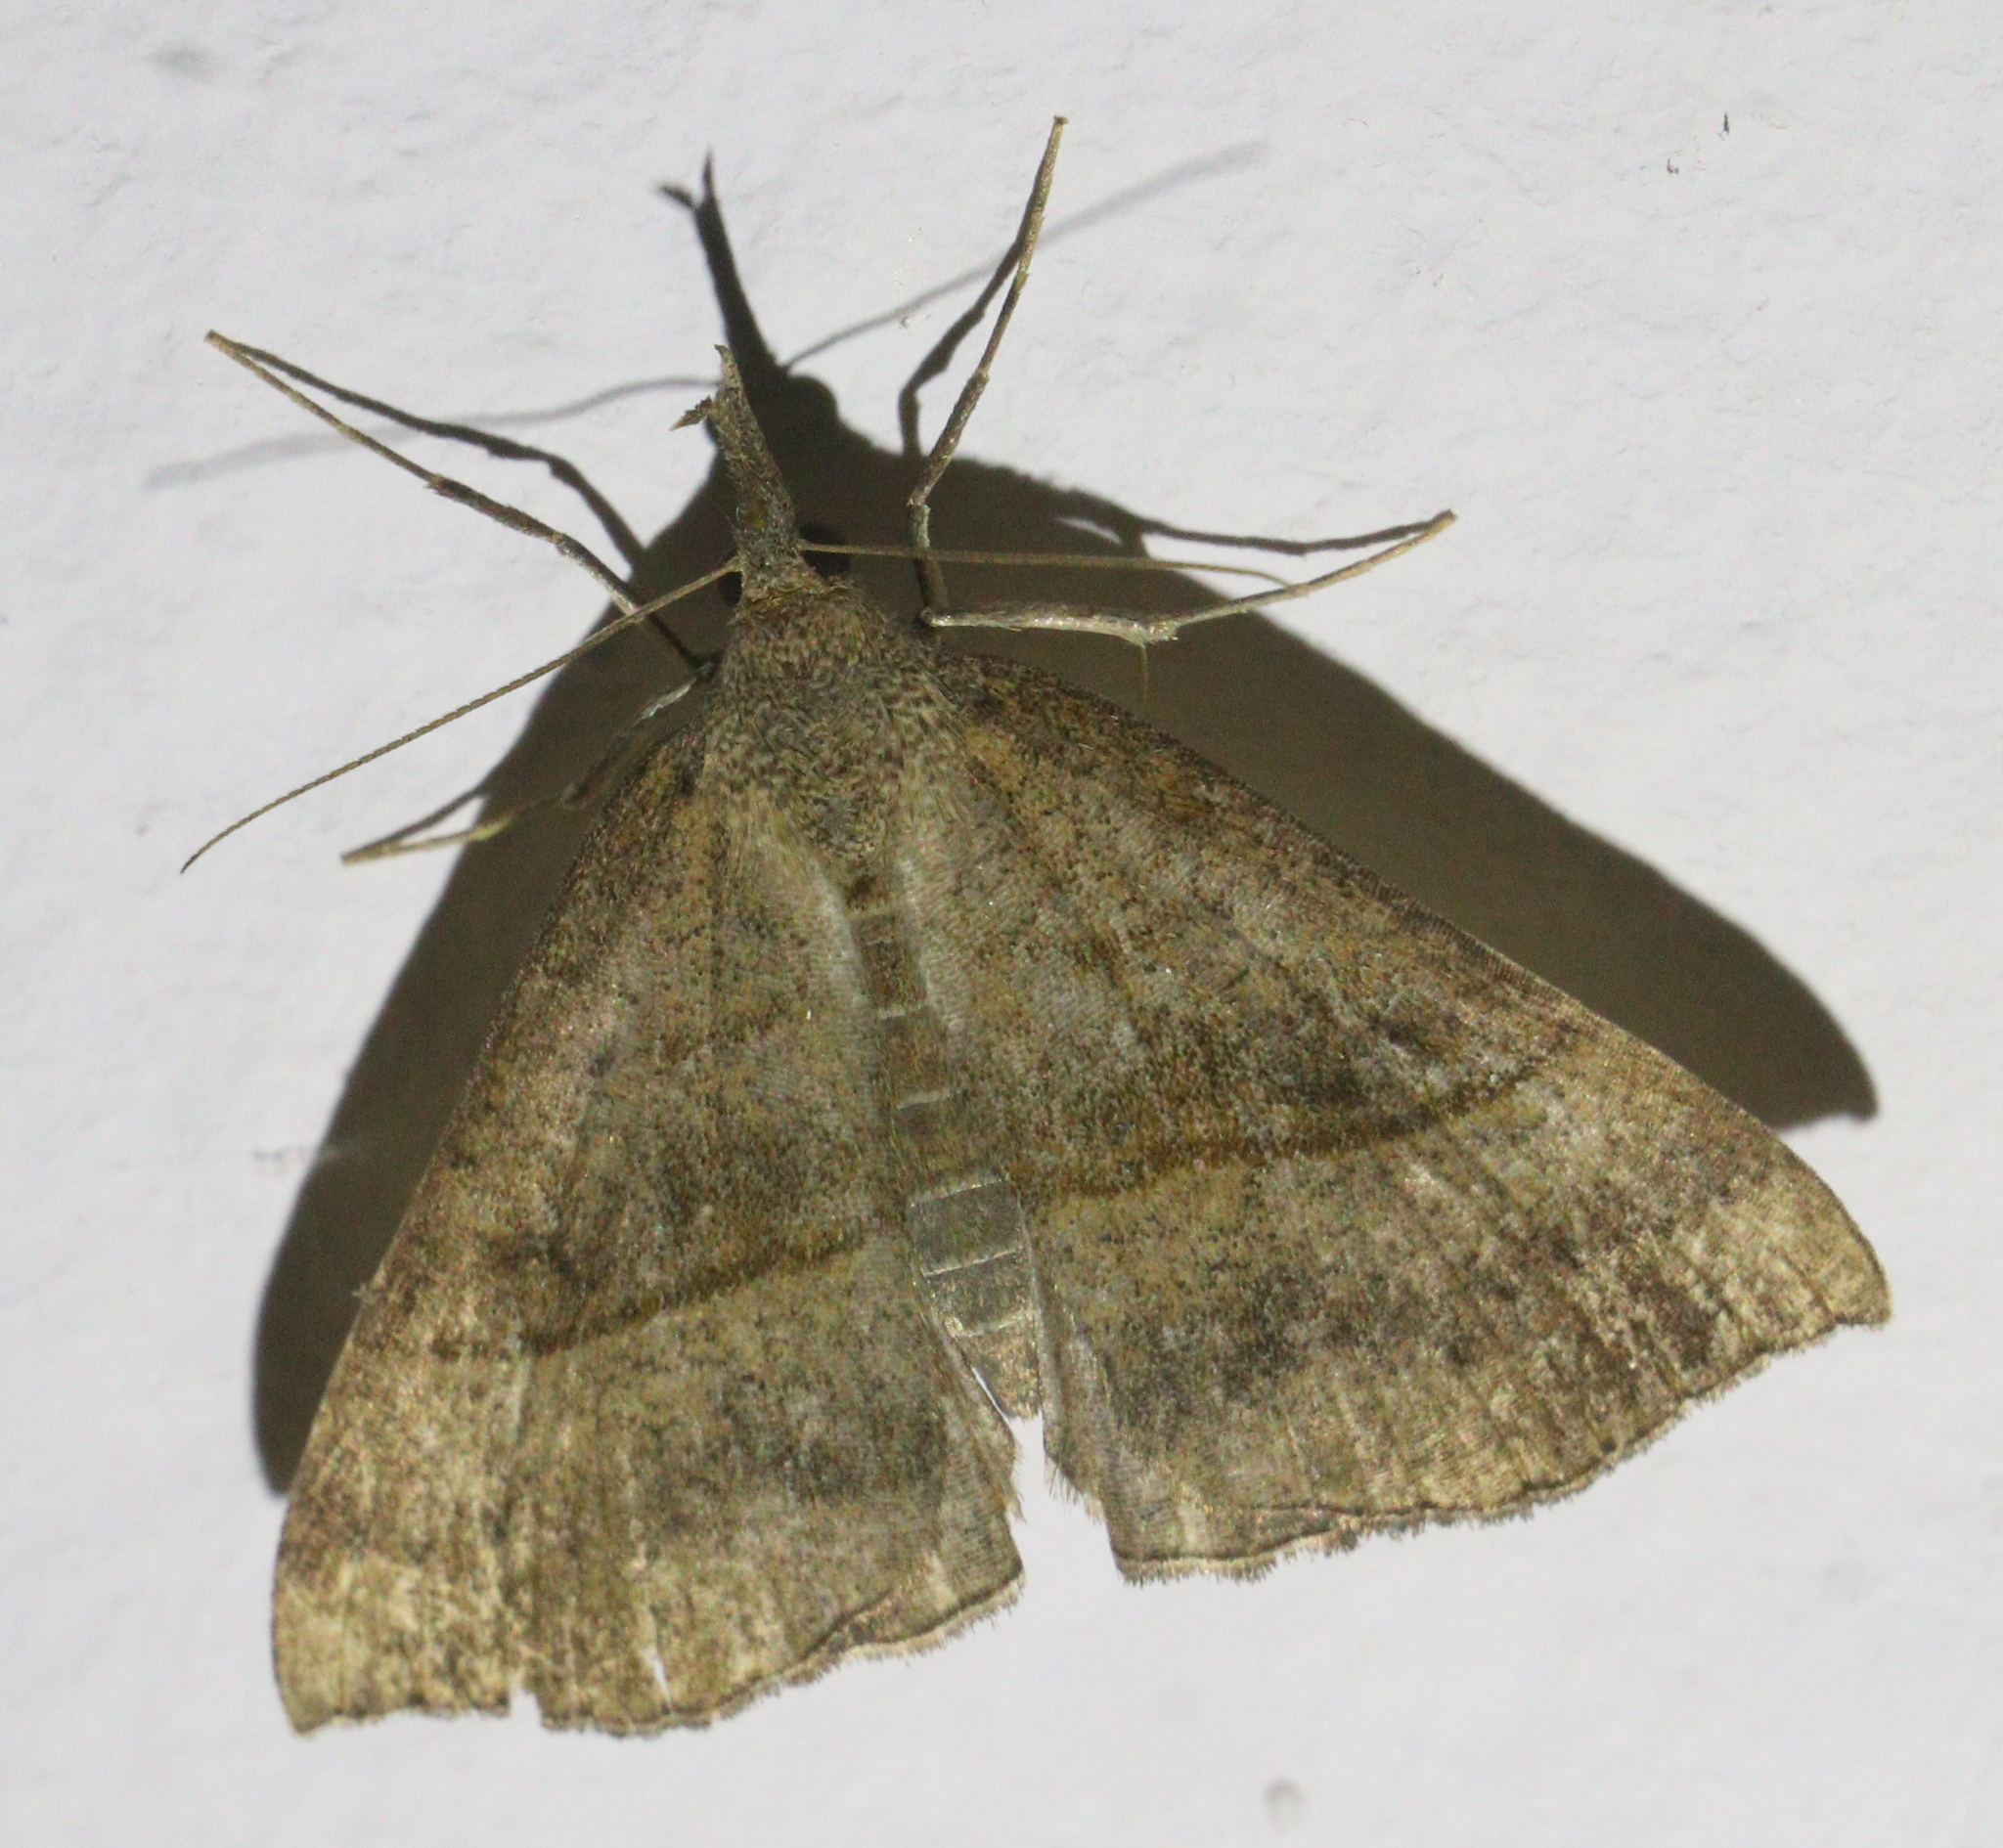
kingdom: Animalia
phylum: Arthropoda
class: Insecta
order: Lepidoptera
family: Erebidae
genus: Hypena
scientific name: Hypena proboscidalis
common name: Snout
